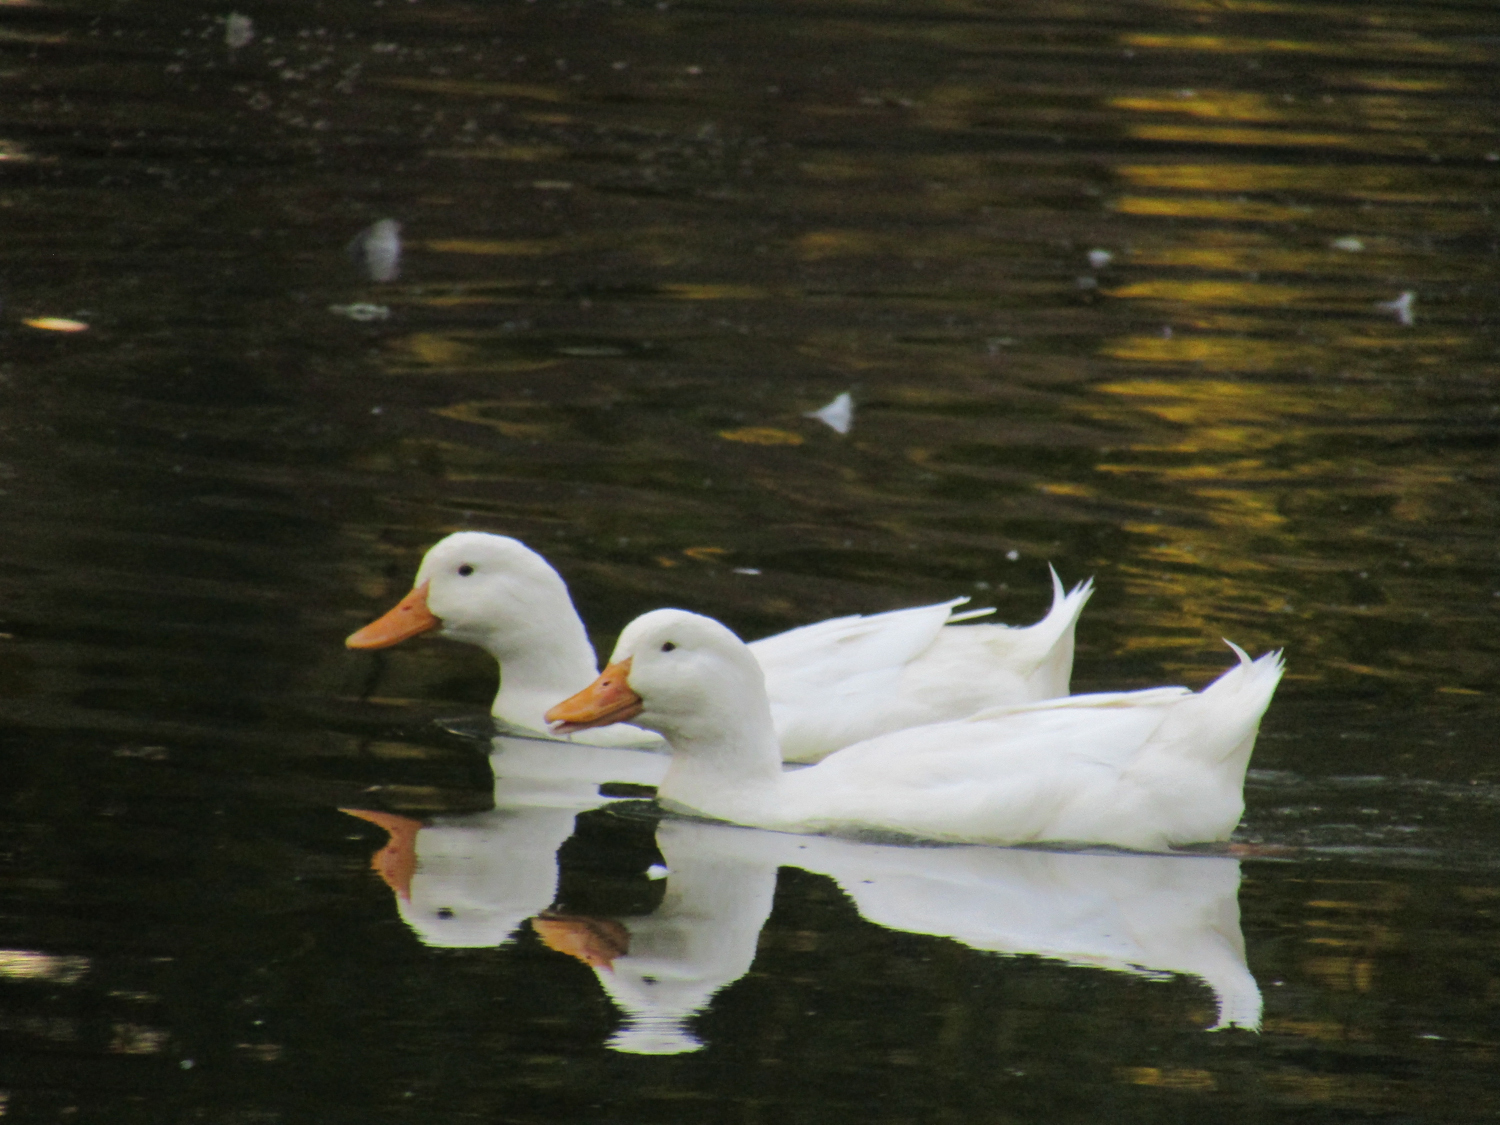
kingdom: Animalia
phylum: Chordata
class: Aves
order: Anseriformes
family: Anatidae
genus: Anas
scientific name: Anas platyrhynchos
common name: Mallard
